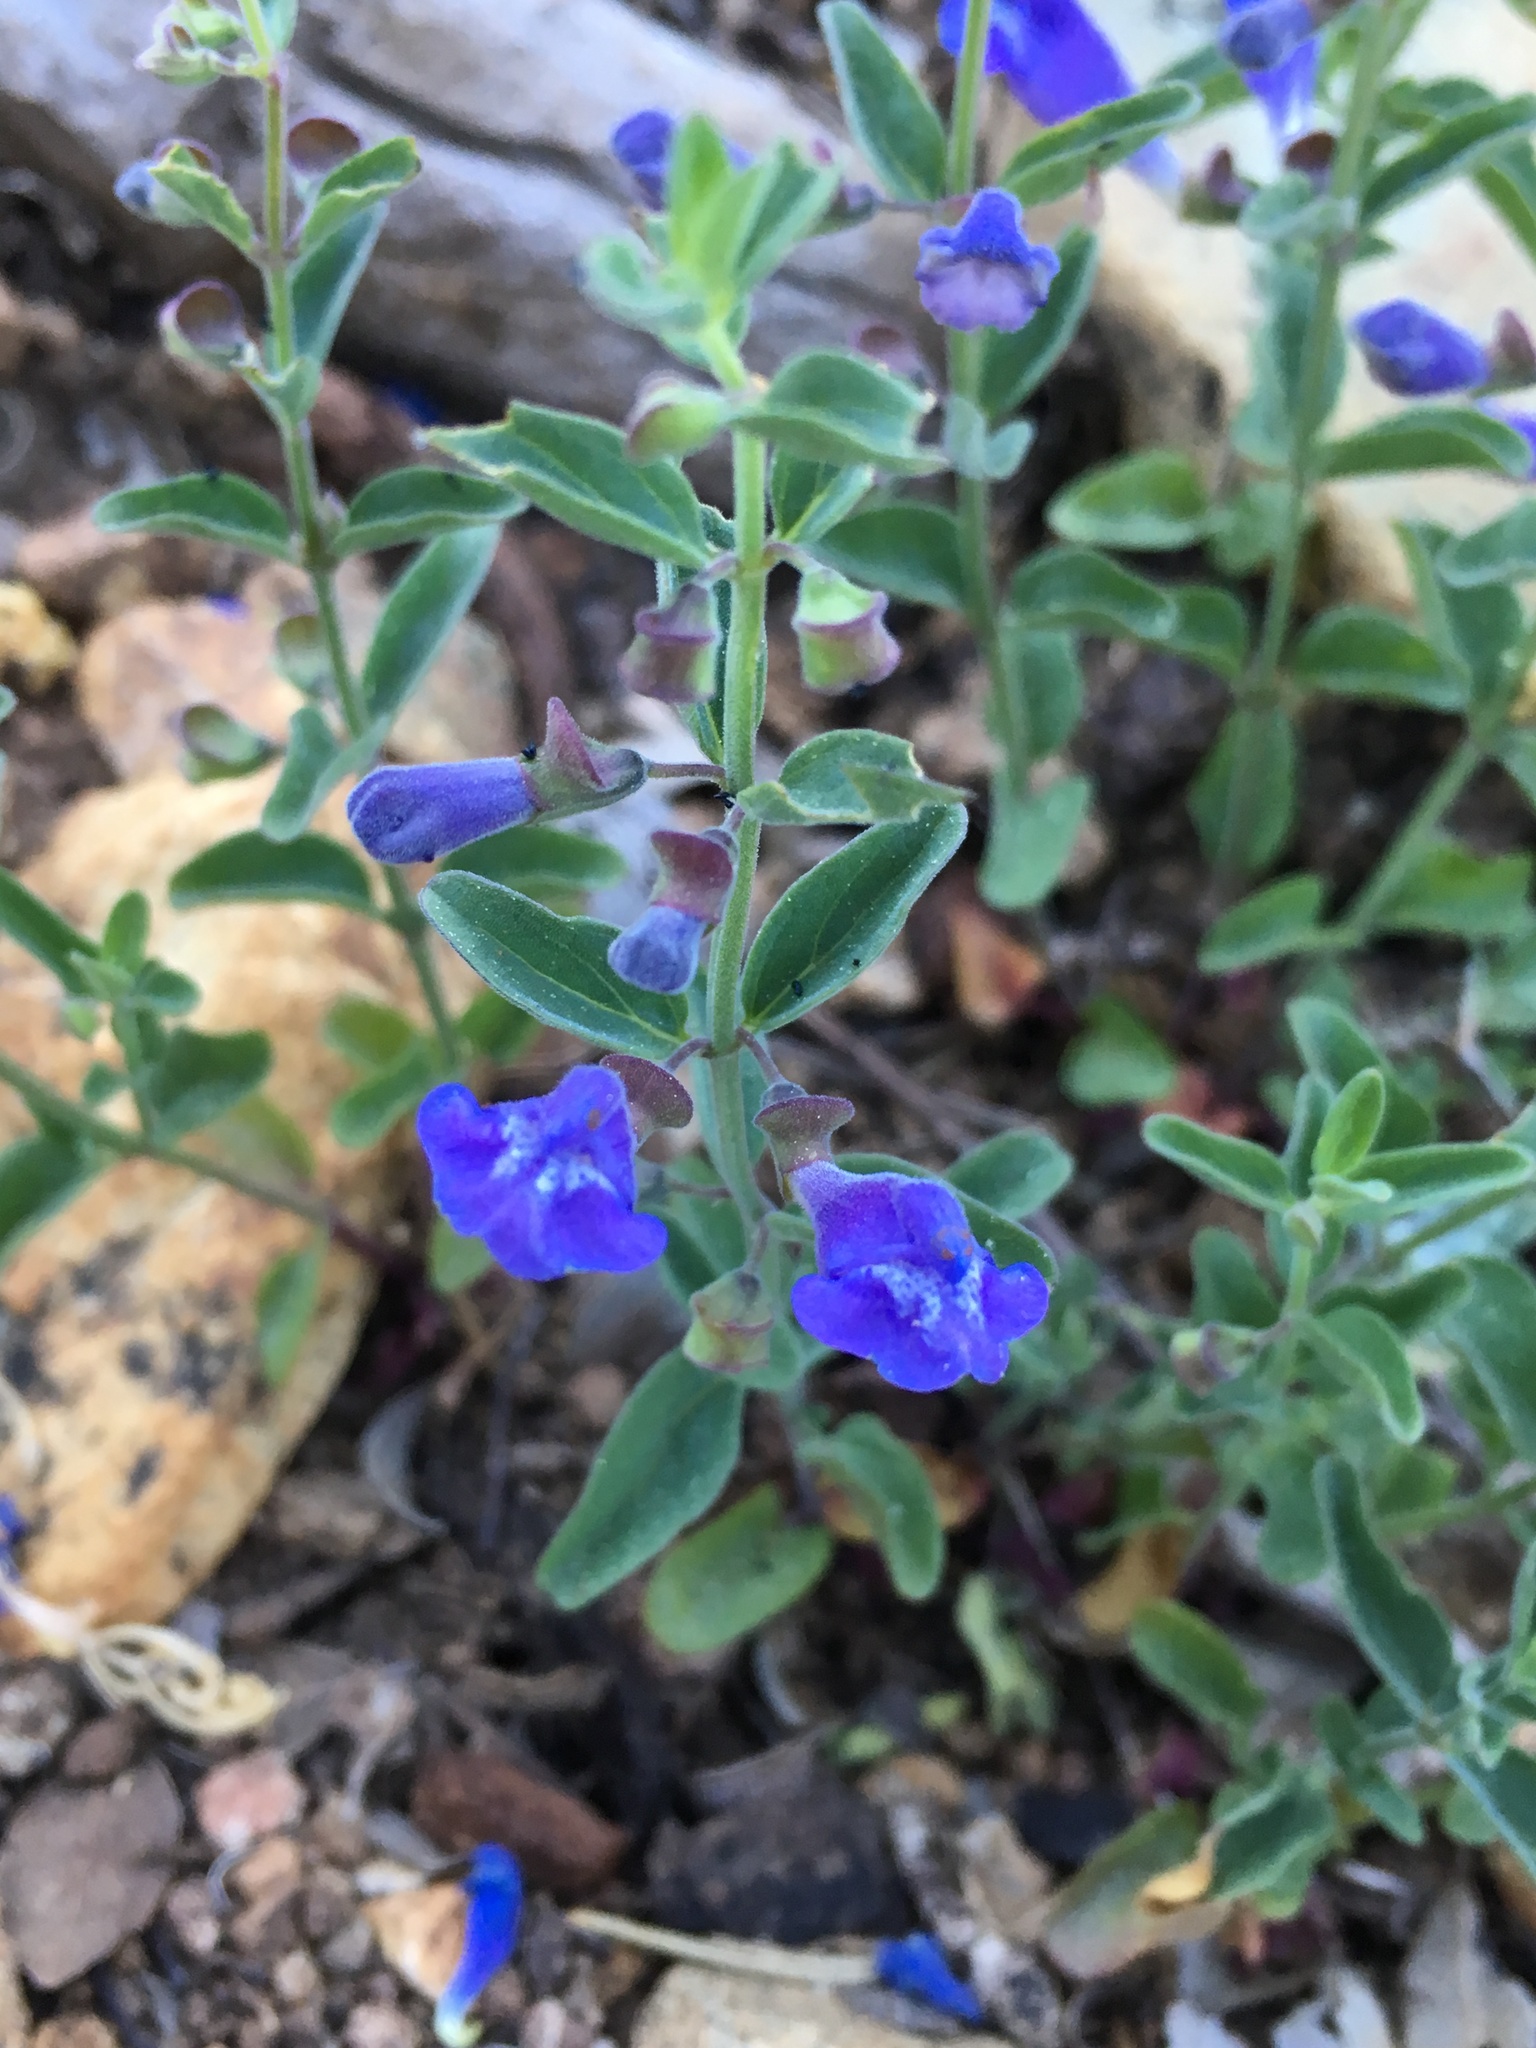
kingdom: Plantae
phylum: Tracheophyta
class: Magnoliopsida
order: Lamiales
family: Lamiaceae
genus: Scutellaria
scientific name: Scutellaria antirrhinoides
